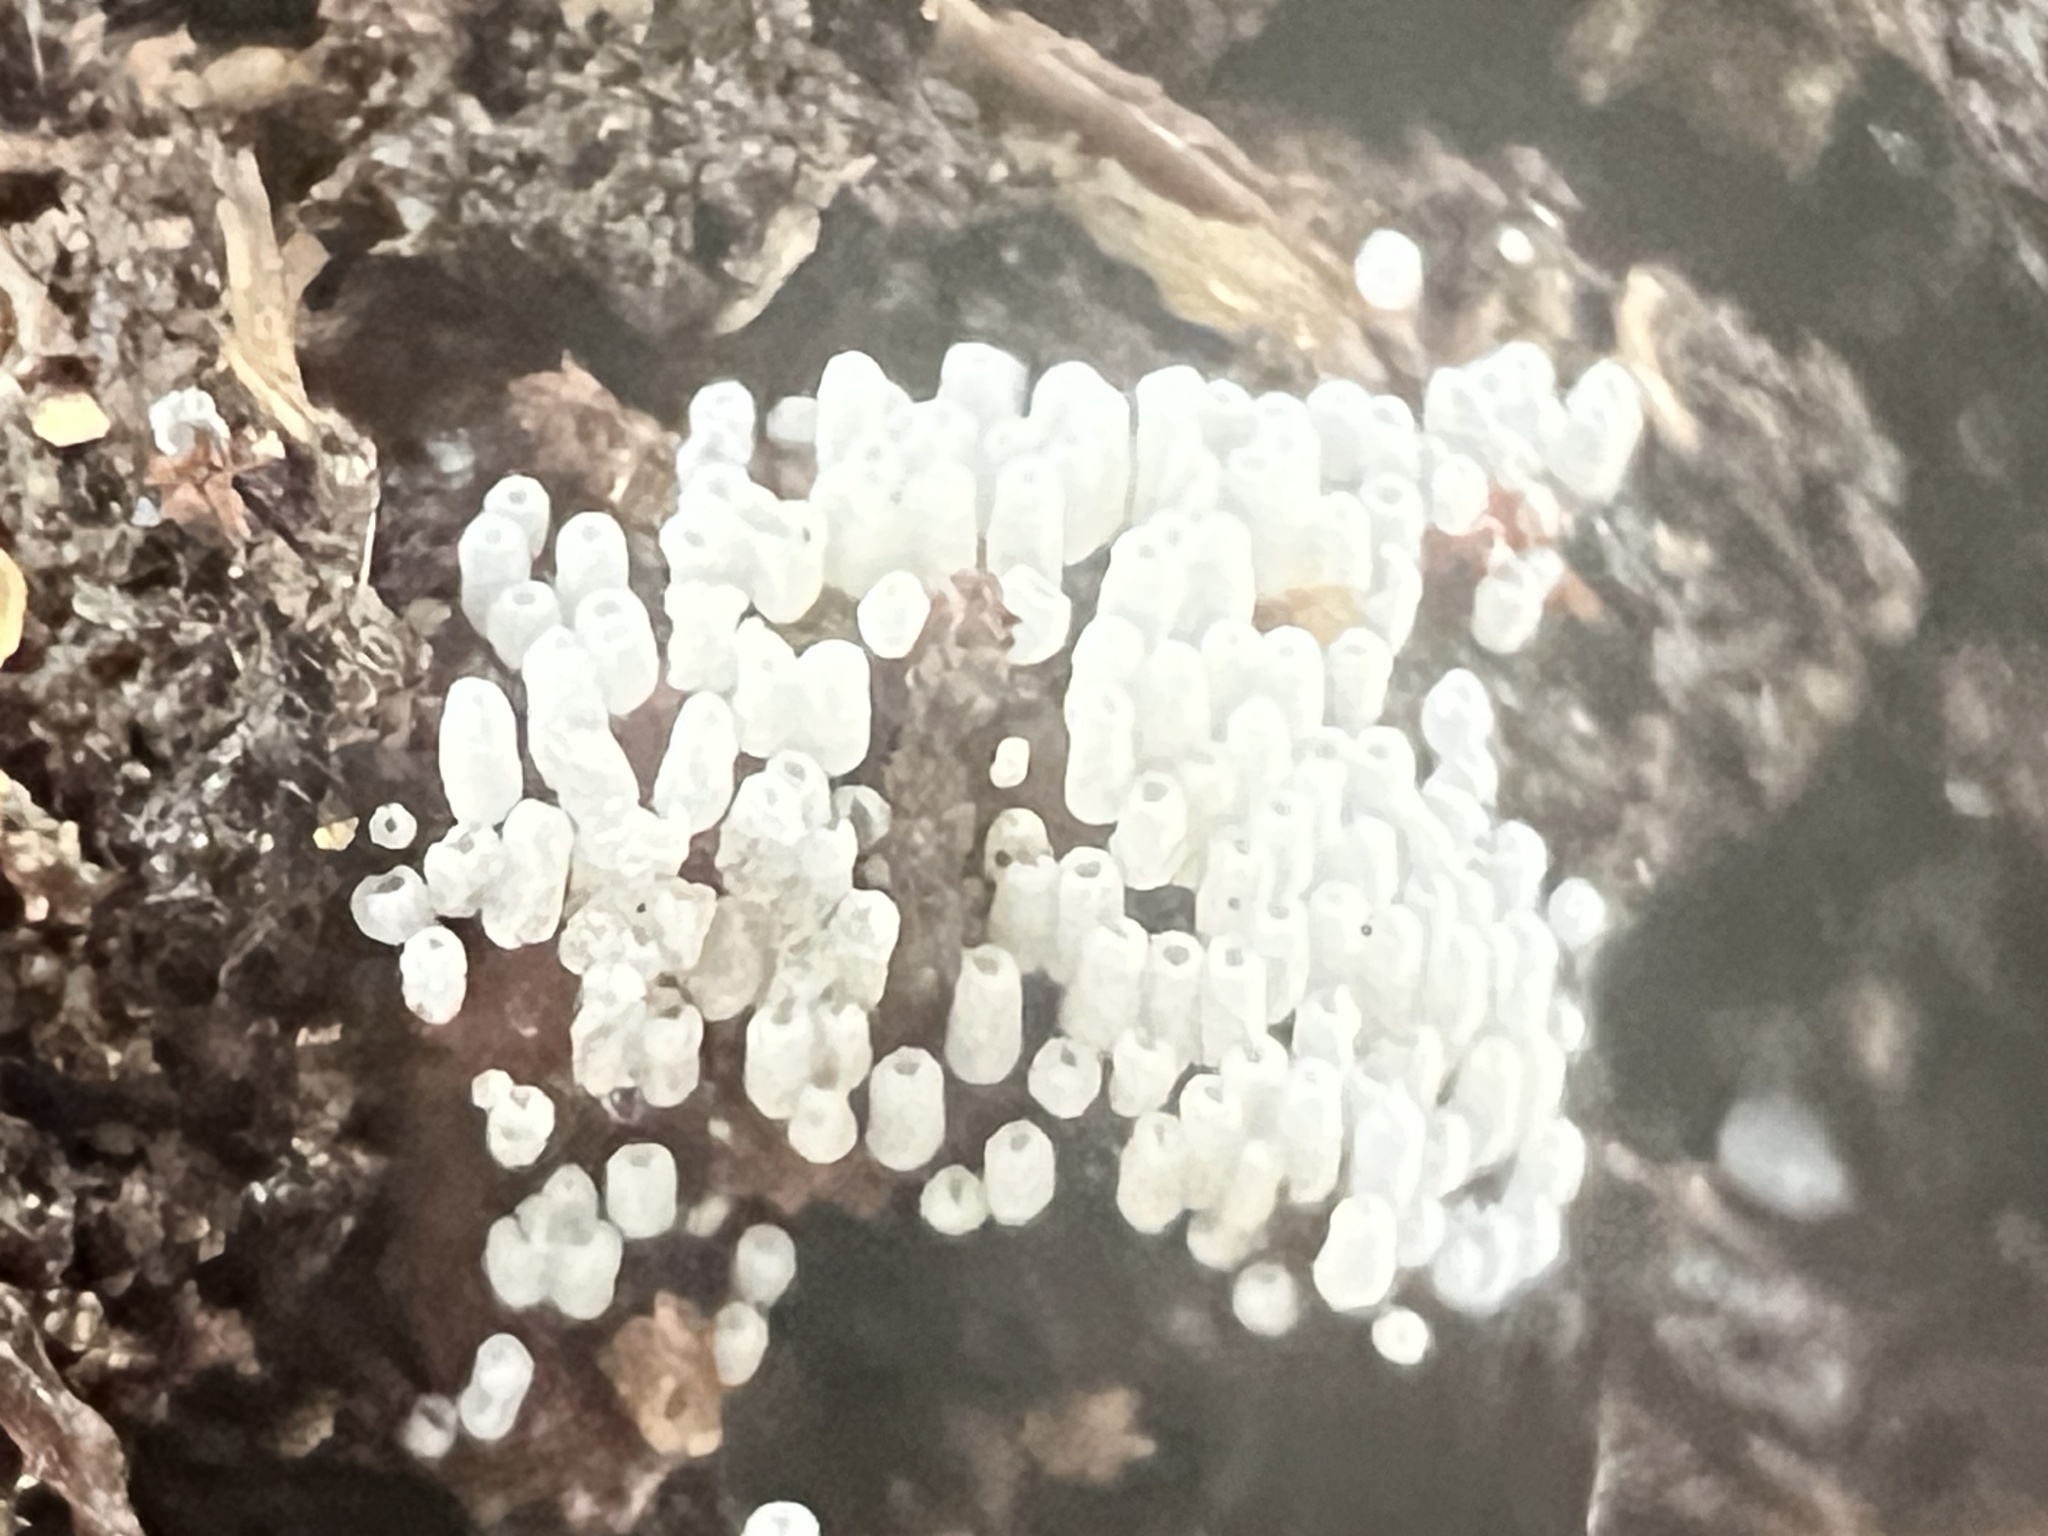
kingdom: Fungi
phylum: Basidiomycota
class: Agaricomycetes
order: Agaricales
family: Marasmiaceae
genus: Henningsomyces
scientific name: Henningsomyces candidus
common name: White tubelet
